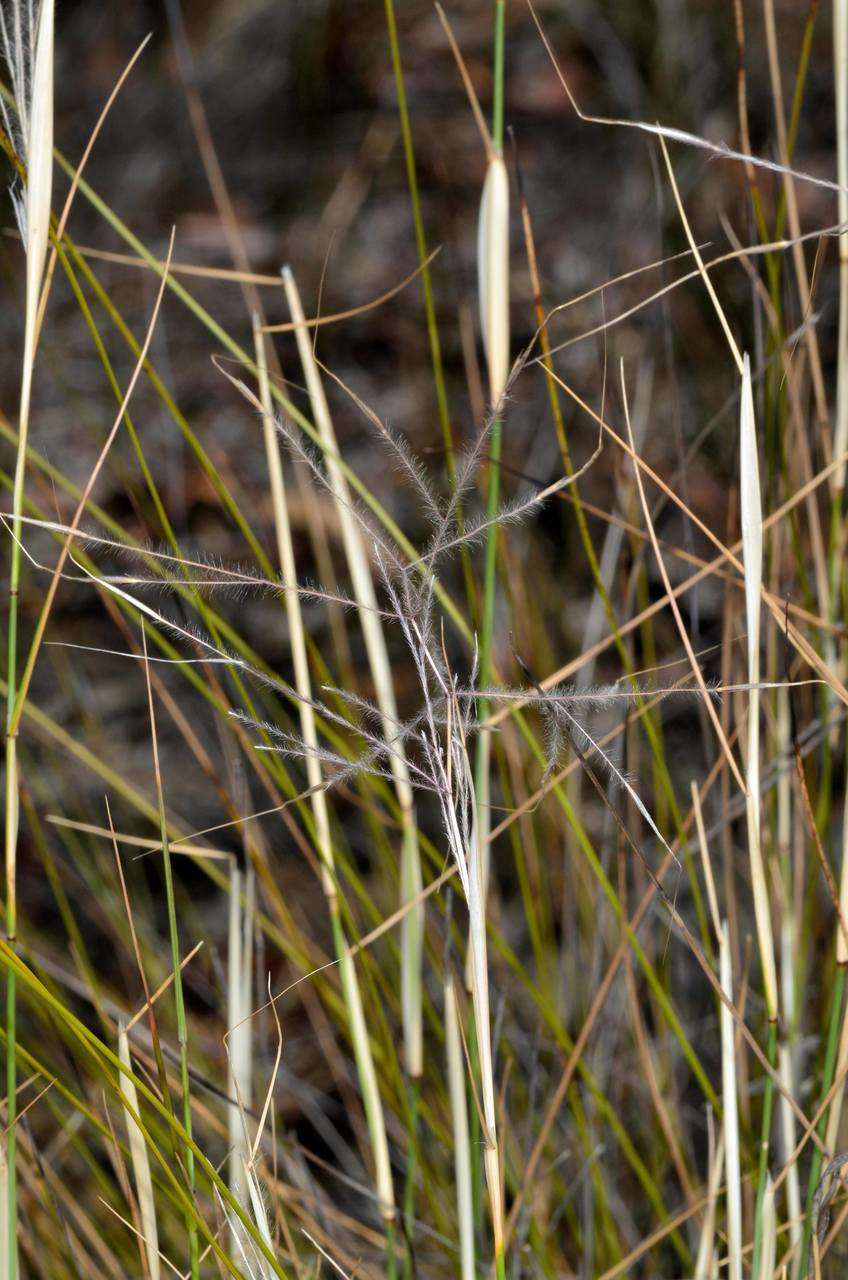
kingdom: Plantae
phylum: Tracheophyta
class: Liliopsida
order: Poales
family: Poaceae
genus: Austrostipa
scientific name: Austrostipa elegantissima
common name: Feather spear grass
